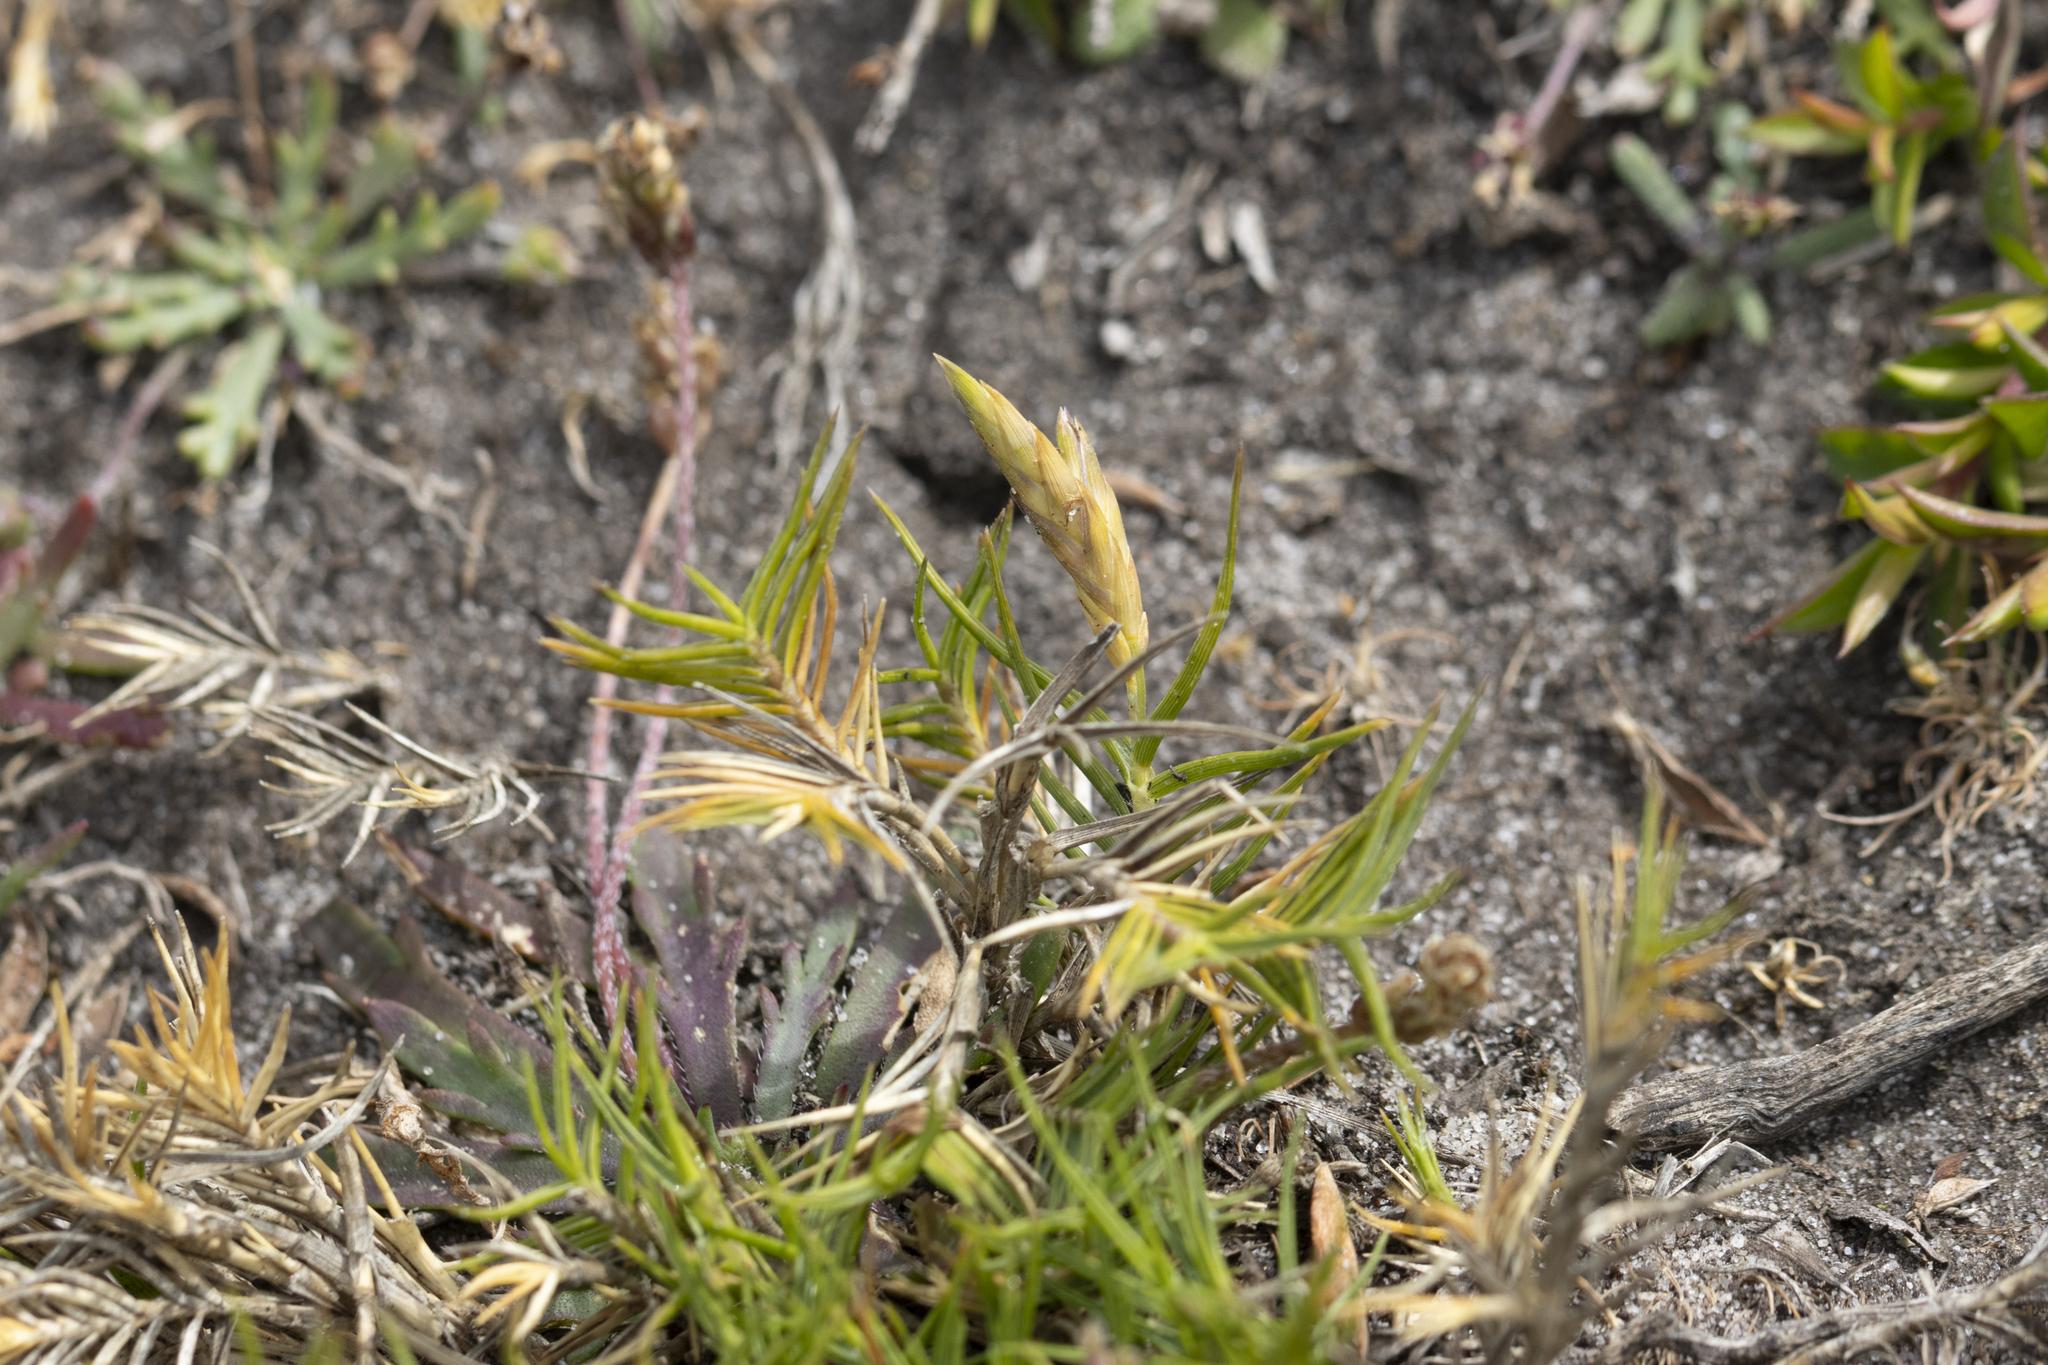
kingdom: Plantae
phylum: Tracheophyta
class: Liliopsida
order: Poales
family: Poaceae
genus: Distichlis
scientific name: Distichlis distichophylla
